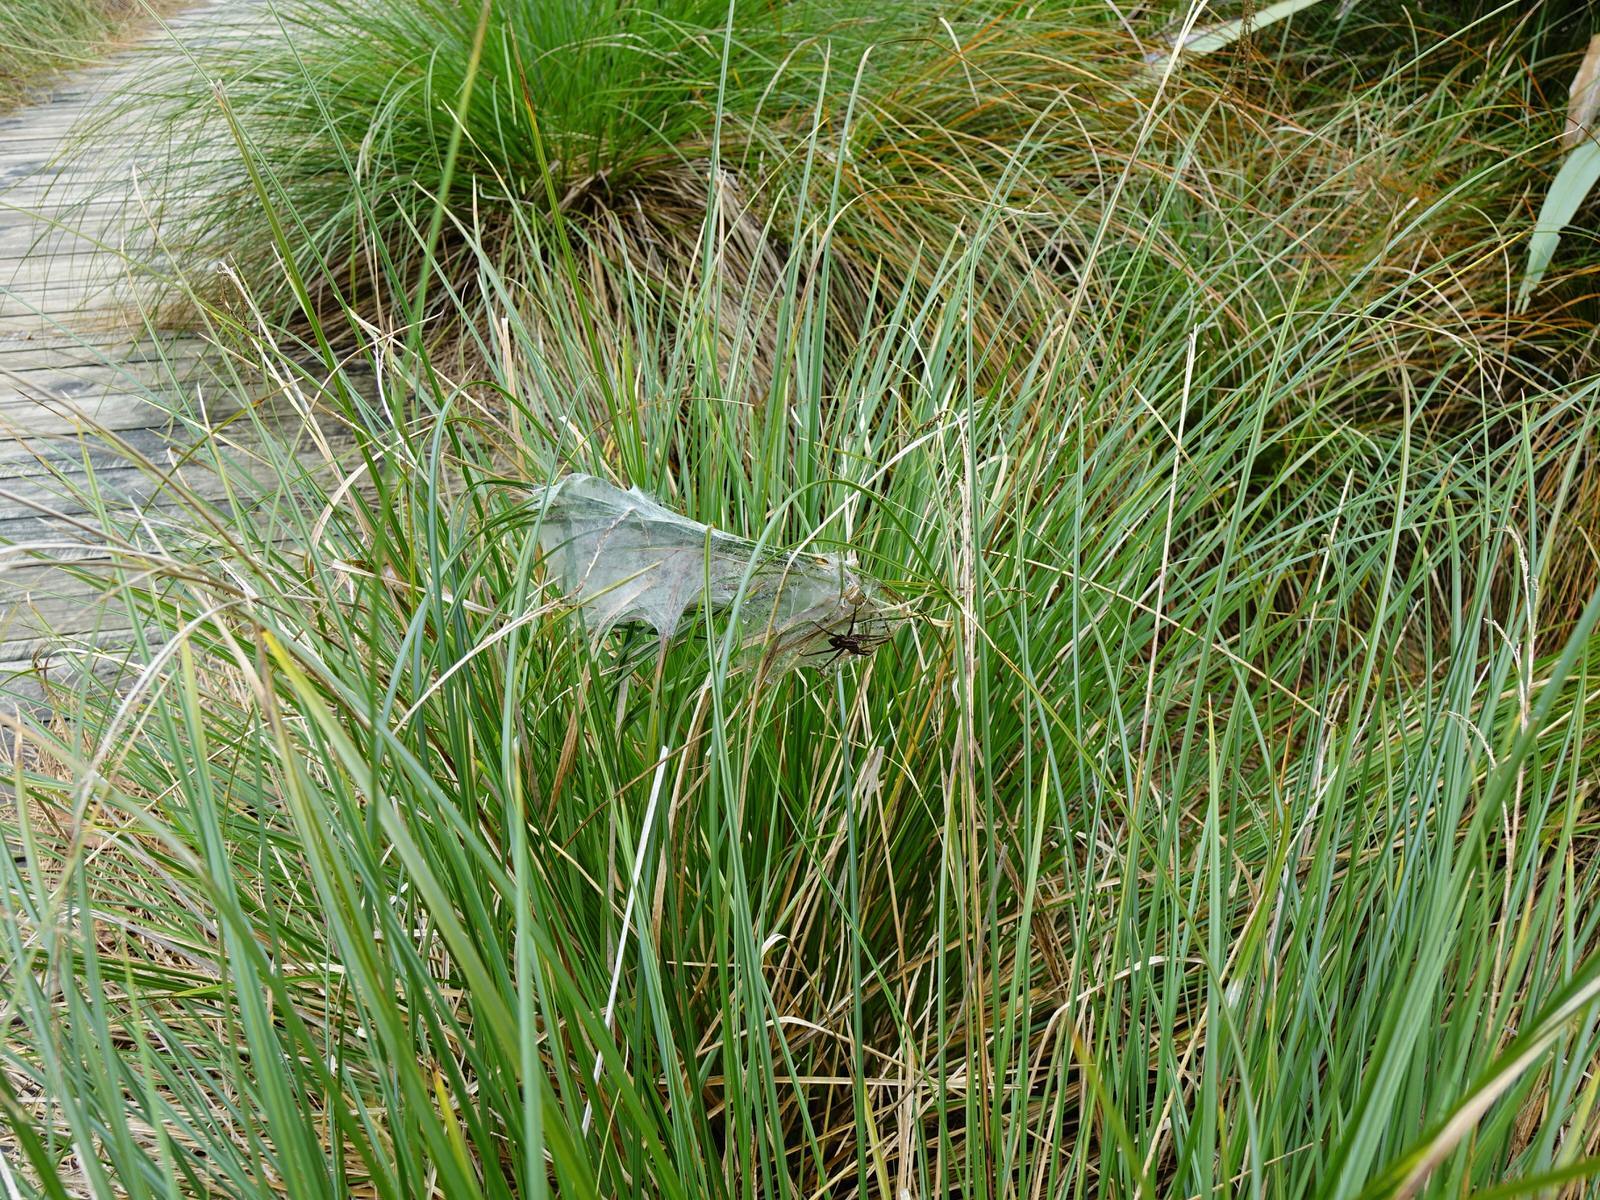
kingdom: Animalia
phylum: Arthropoda
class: Arachnida
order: Araneae
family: Pisauridae
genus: Dolomedes
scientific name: Dolomedes minor
